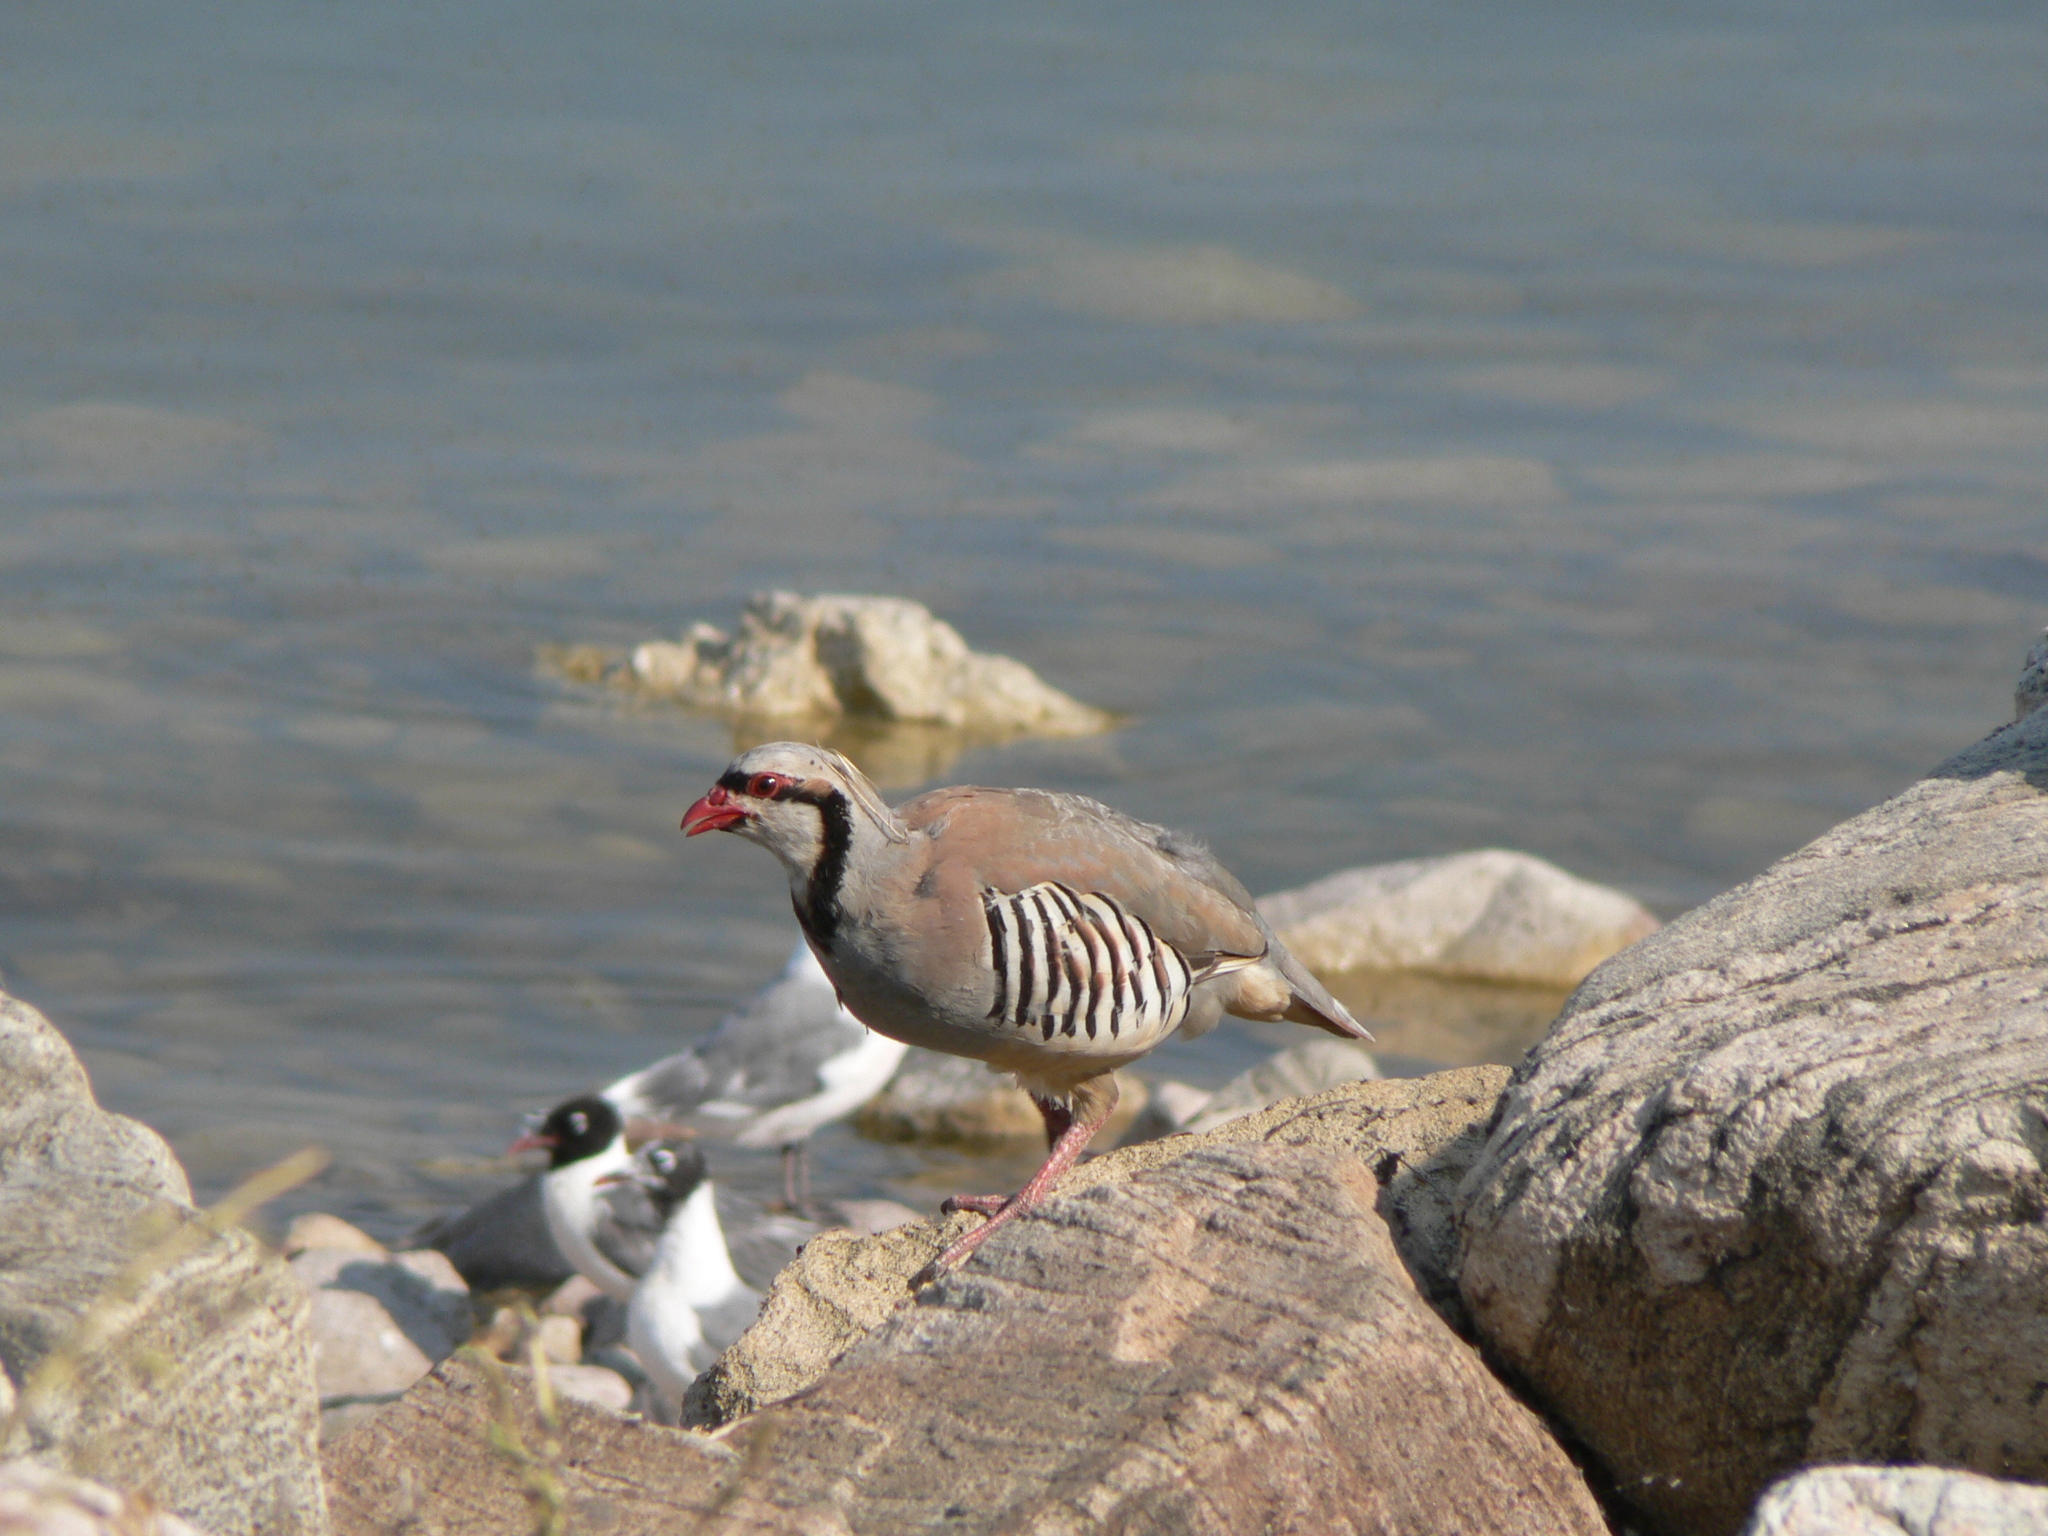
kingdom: Animalia
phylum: Chordata
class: Aves
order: Galliformes
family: Phasianidae
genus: Alectoris
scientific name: Alectoris chukar
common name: Chukar
